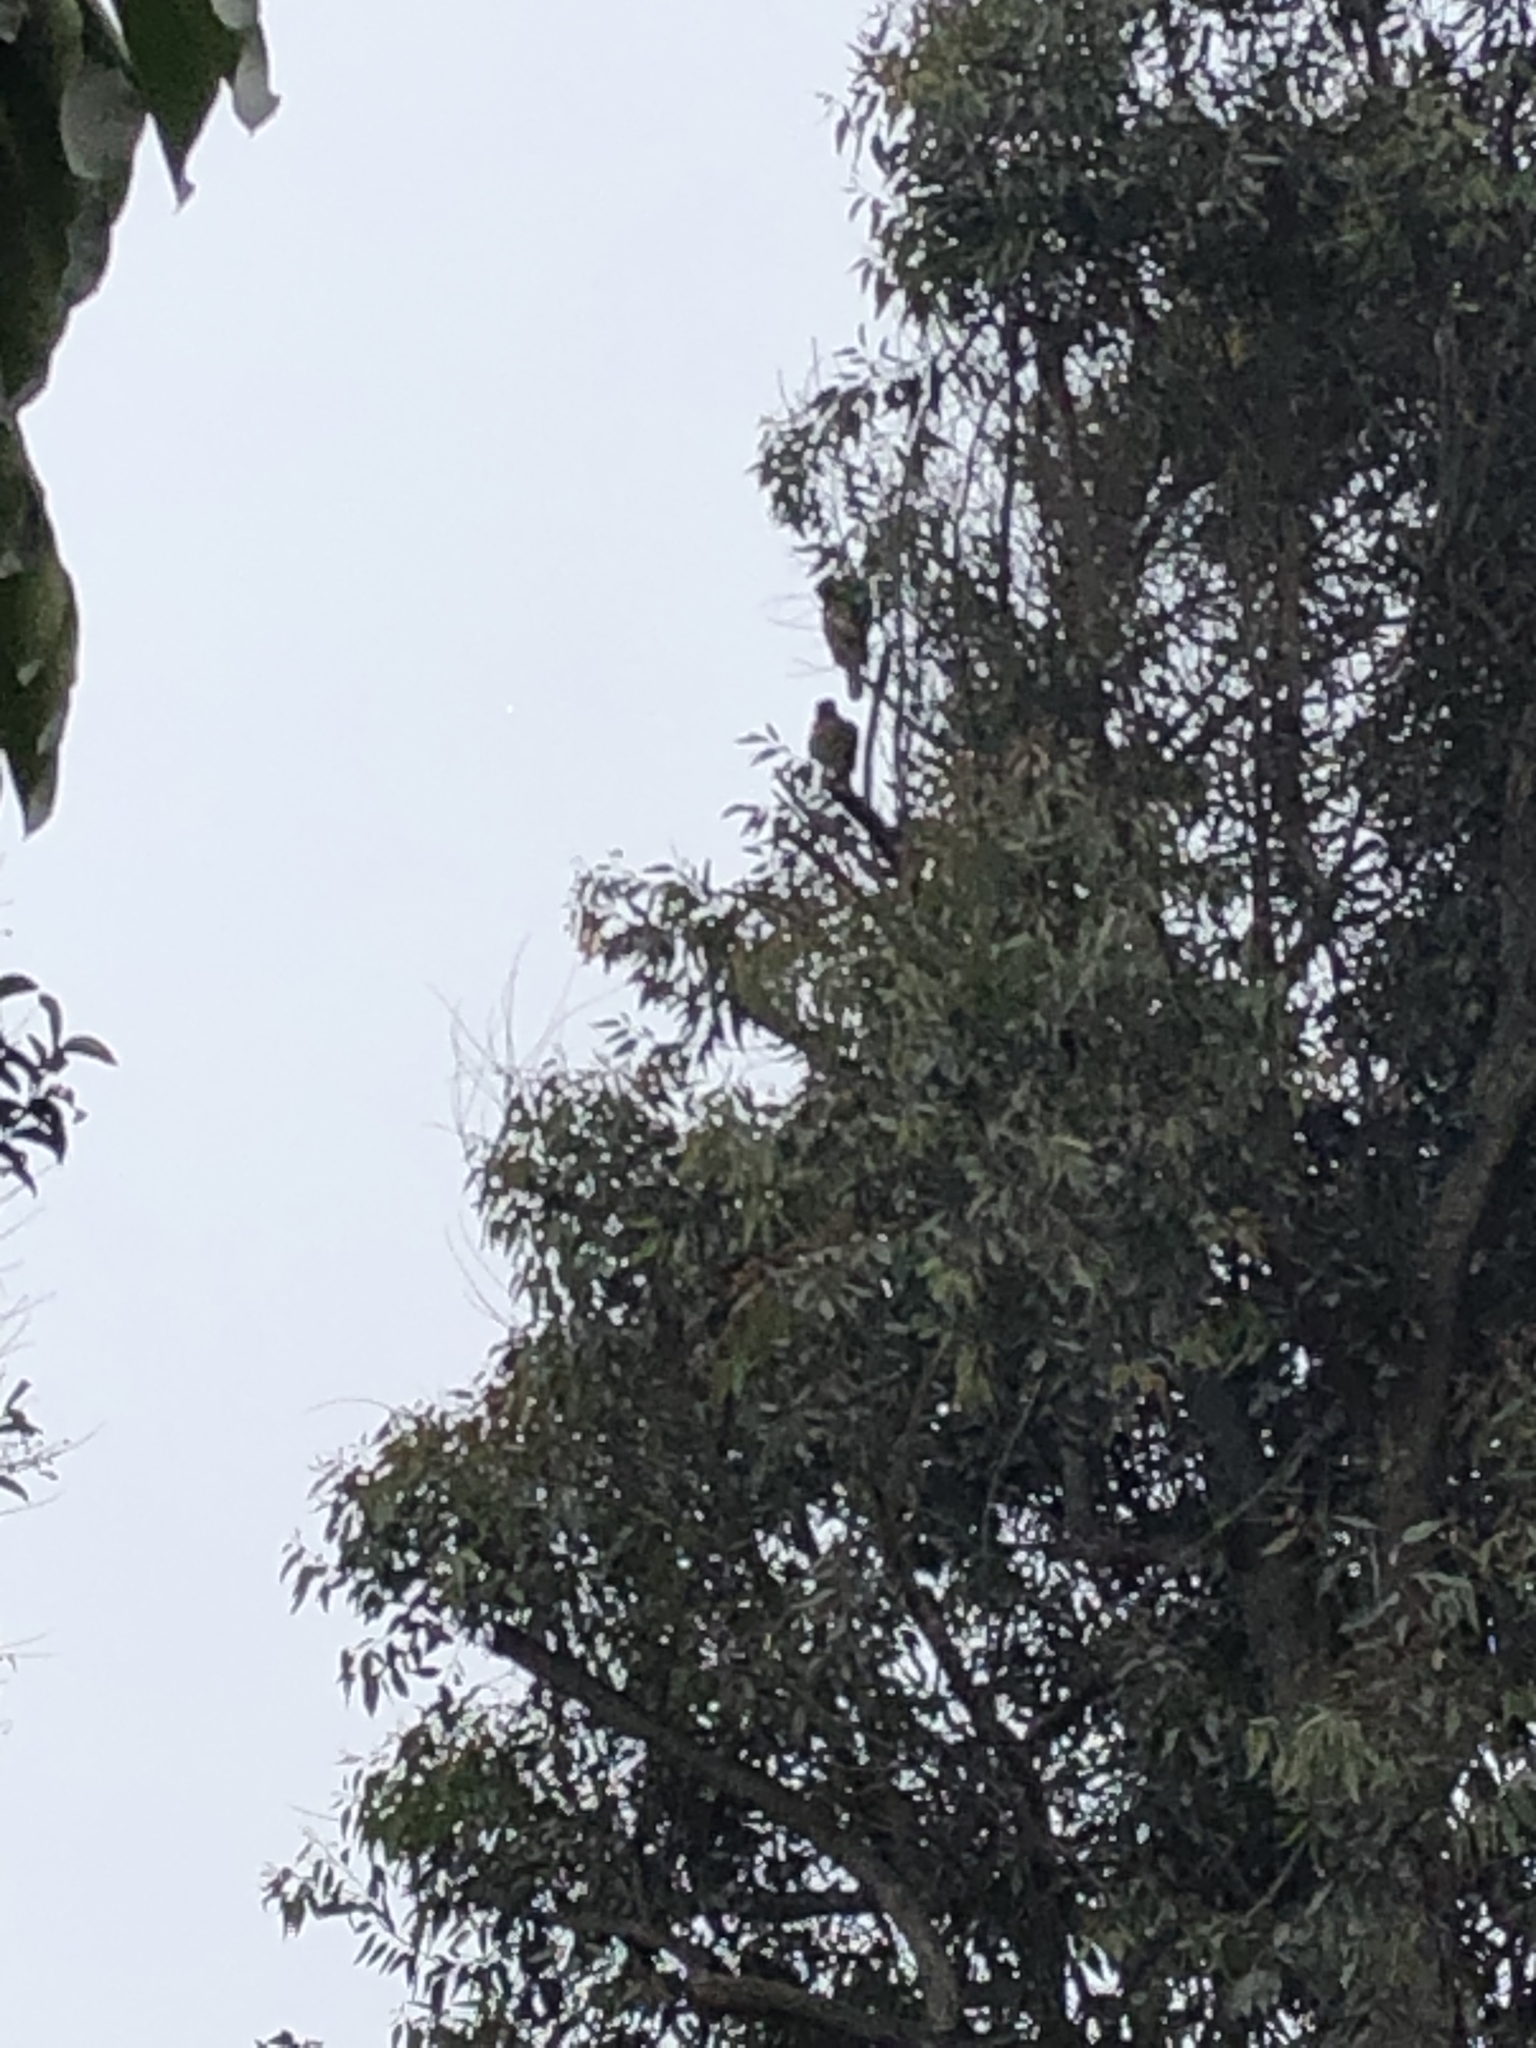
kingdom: Animalia
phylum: Chordata
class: Aves
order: Accipitriformes
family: Accipitridae
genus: Parabuteo
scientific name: Parabuteo unicinctus
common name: Harris's hawk
